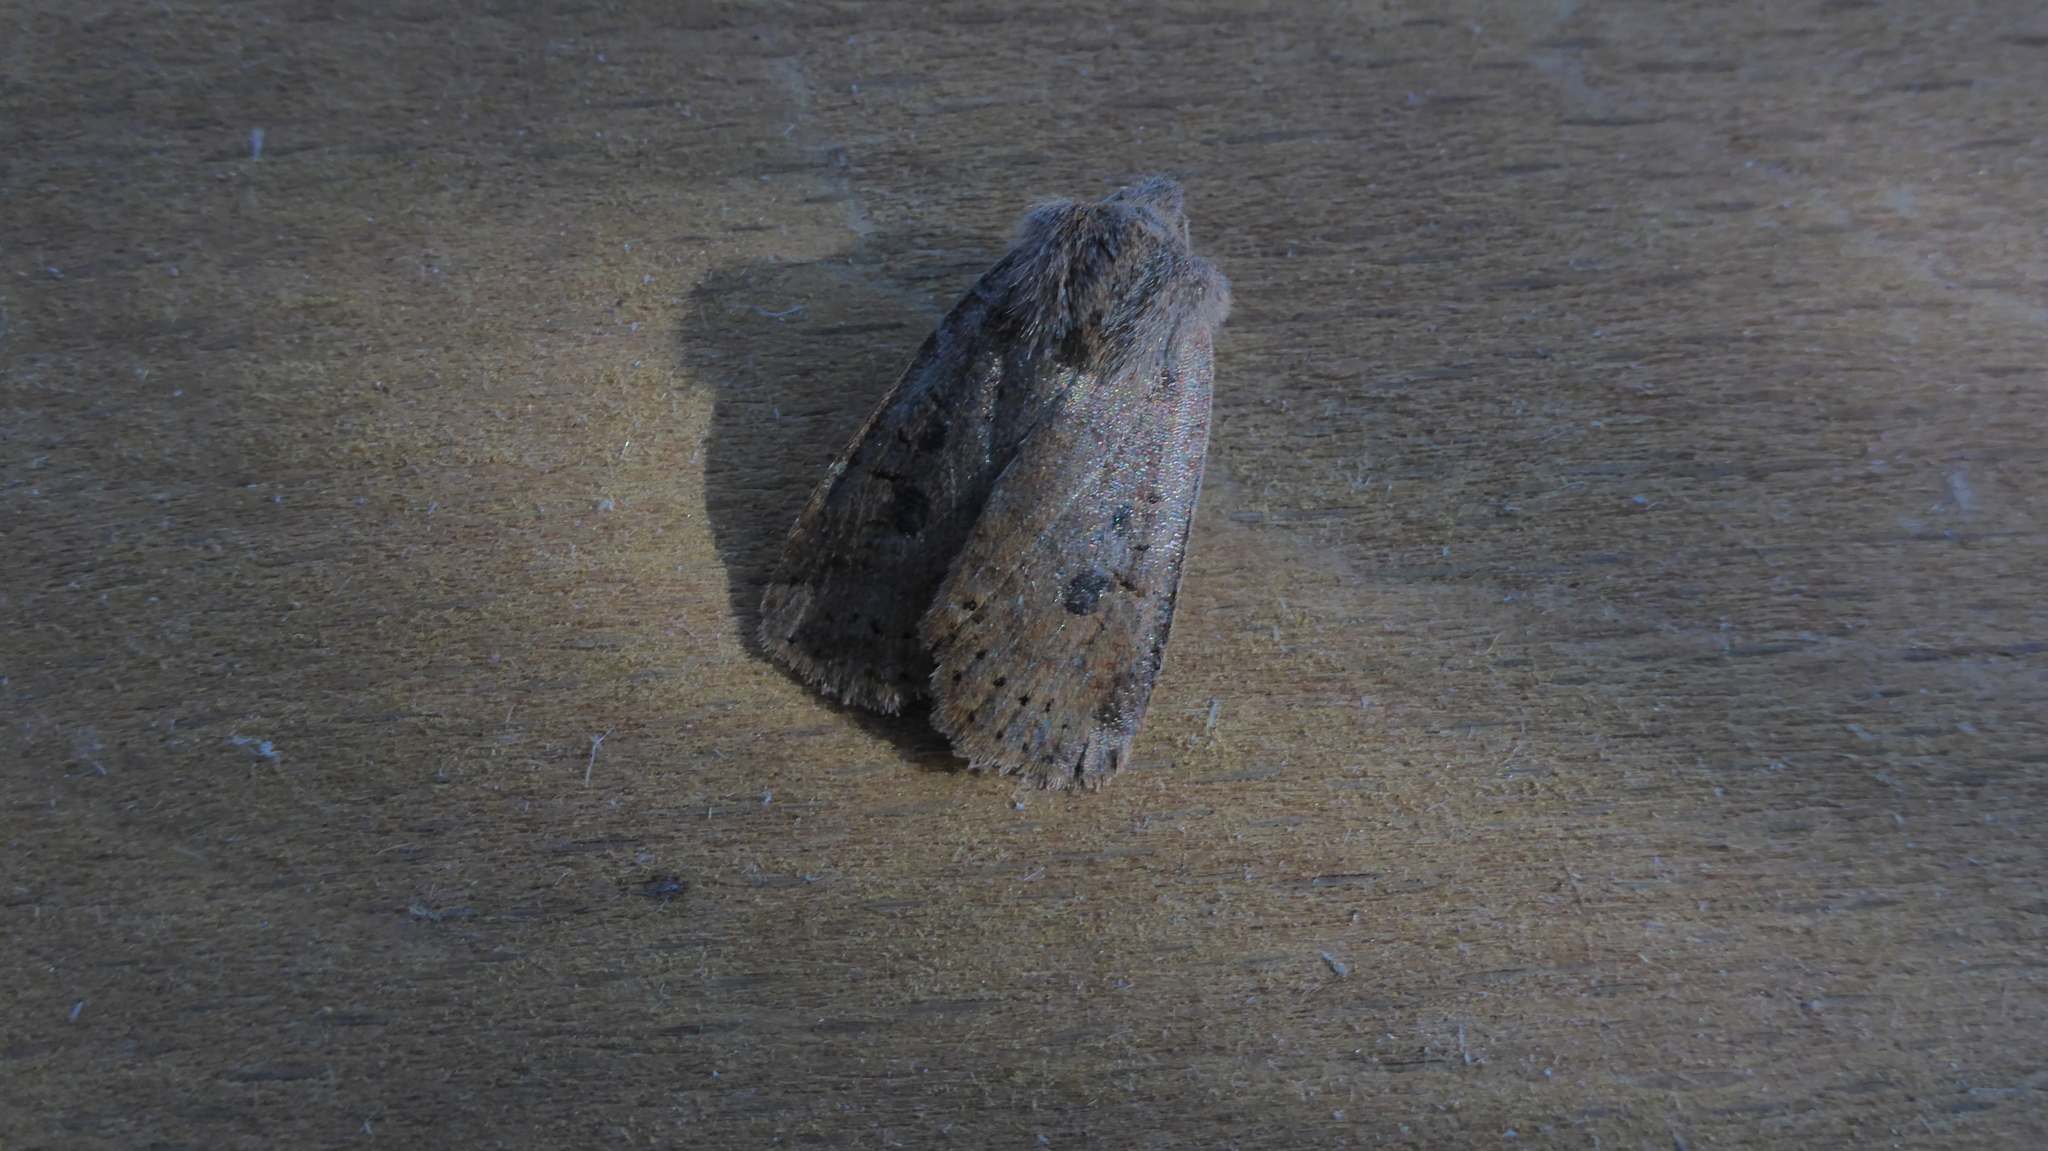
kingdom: Animalia
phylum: Arthropoda
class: Insecta
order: Lepidoptera
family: Noctuidae
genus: Conistra
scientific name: Conistra vaccinii
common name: Chestnut
